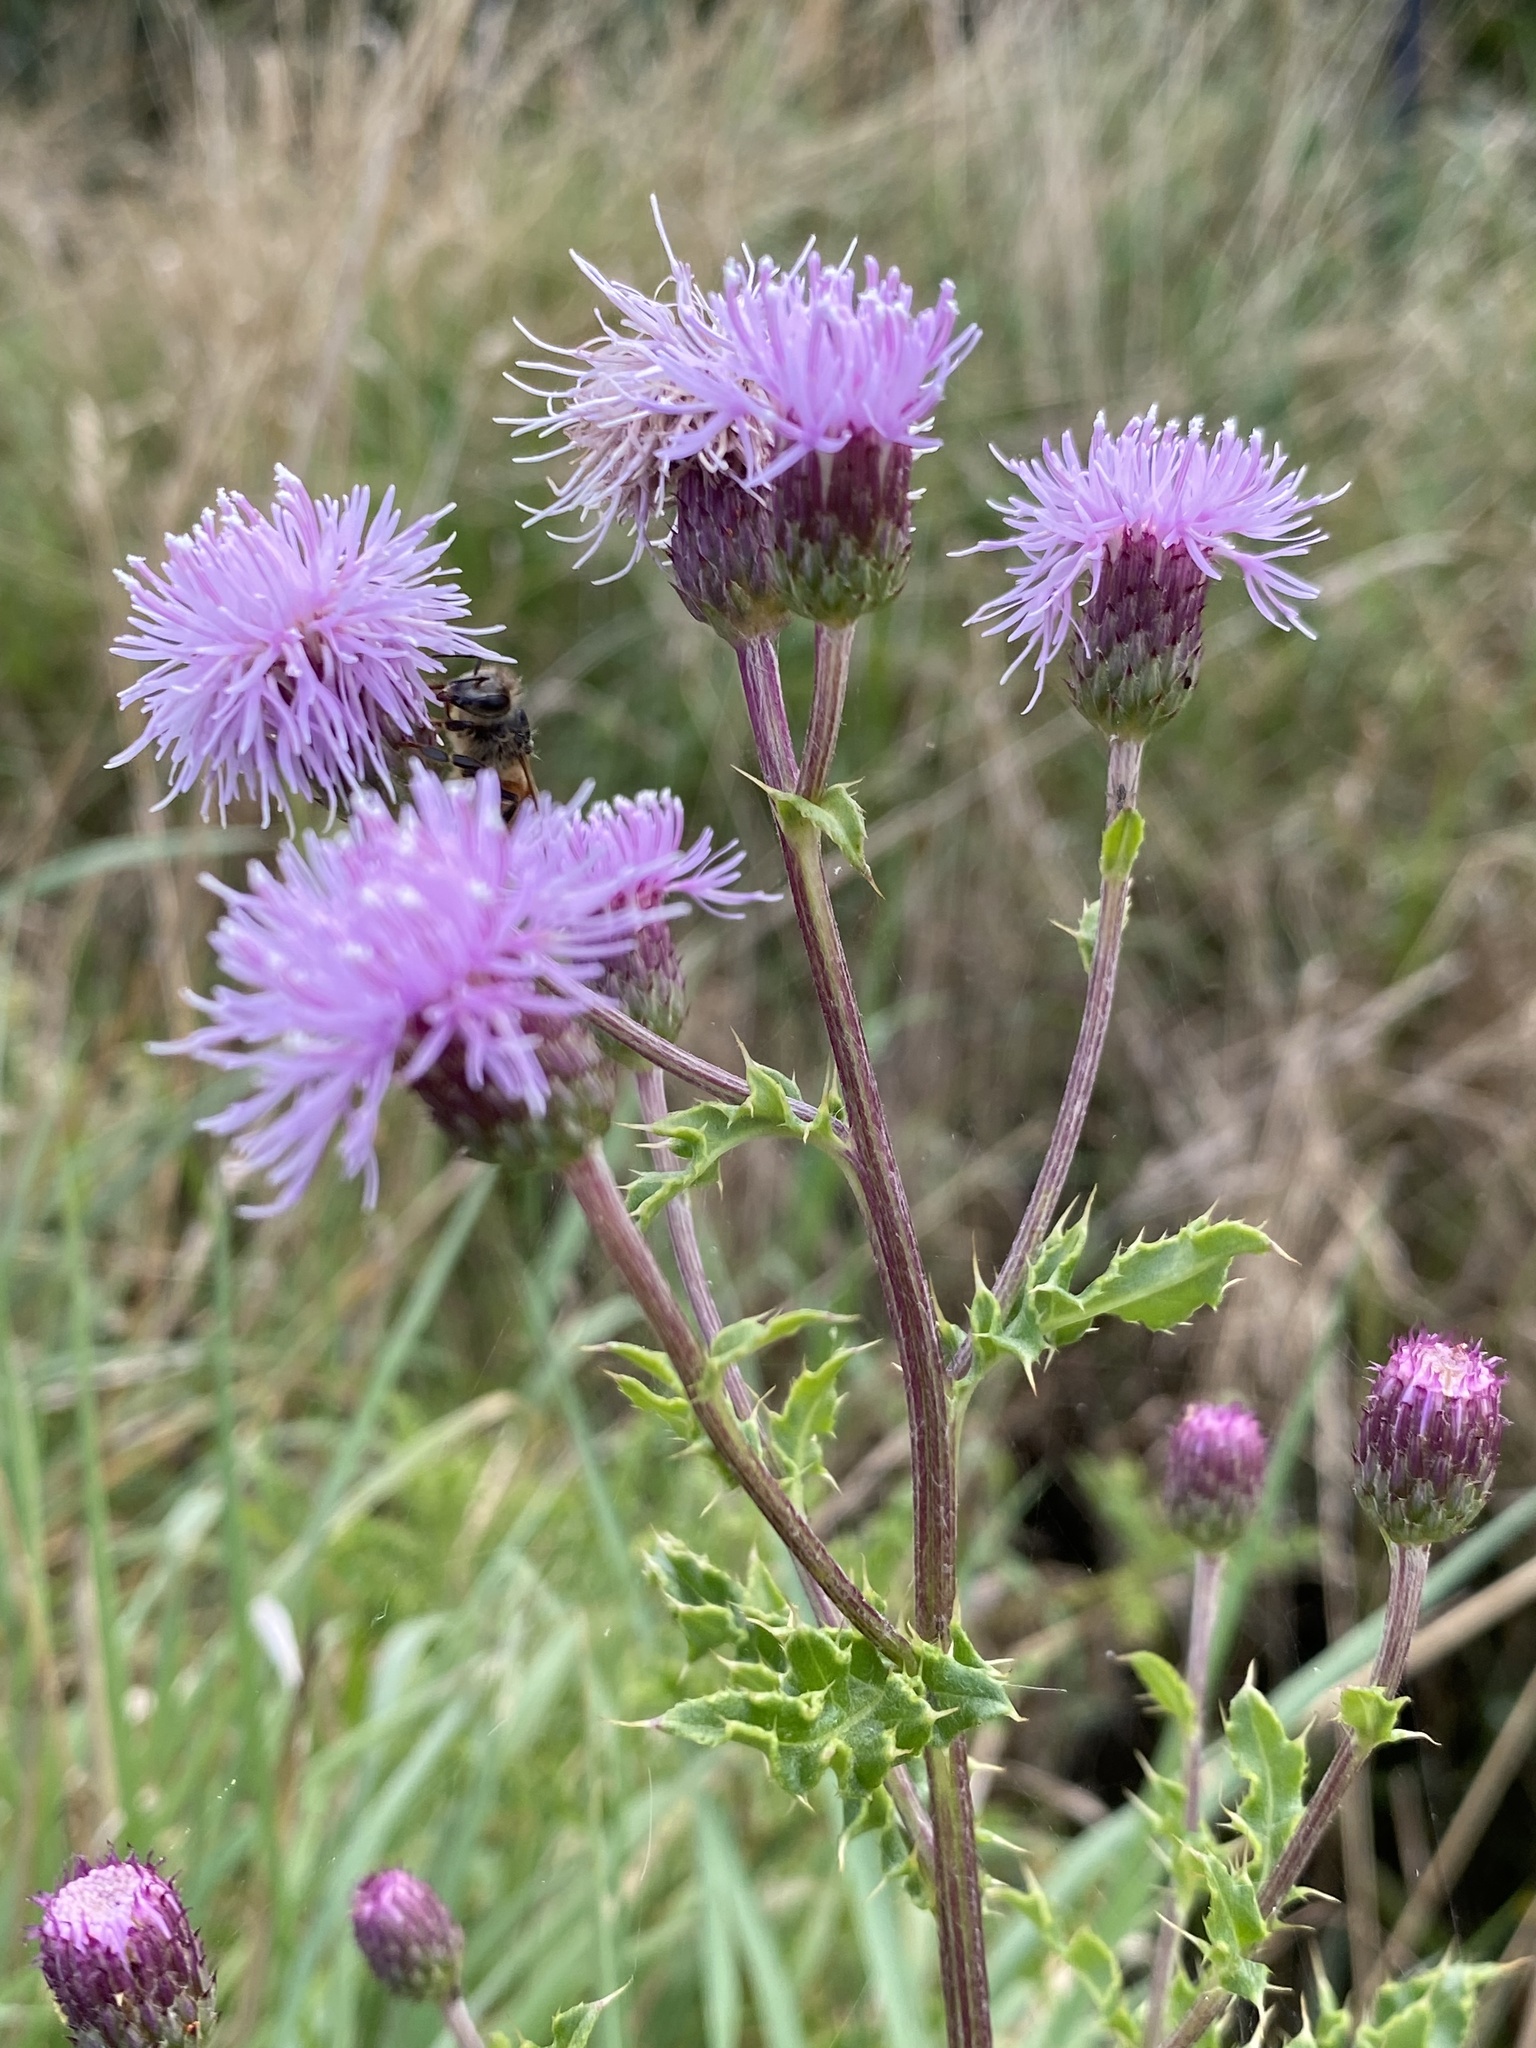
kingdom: Plantae
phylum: Tracheophyta
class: Magnoliopsida
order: Asterales
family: Asteraceae
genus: Cirsium
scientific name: Cirsium arvense
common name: Creeping thistle
